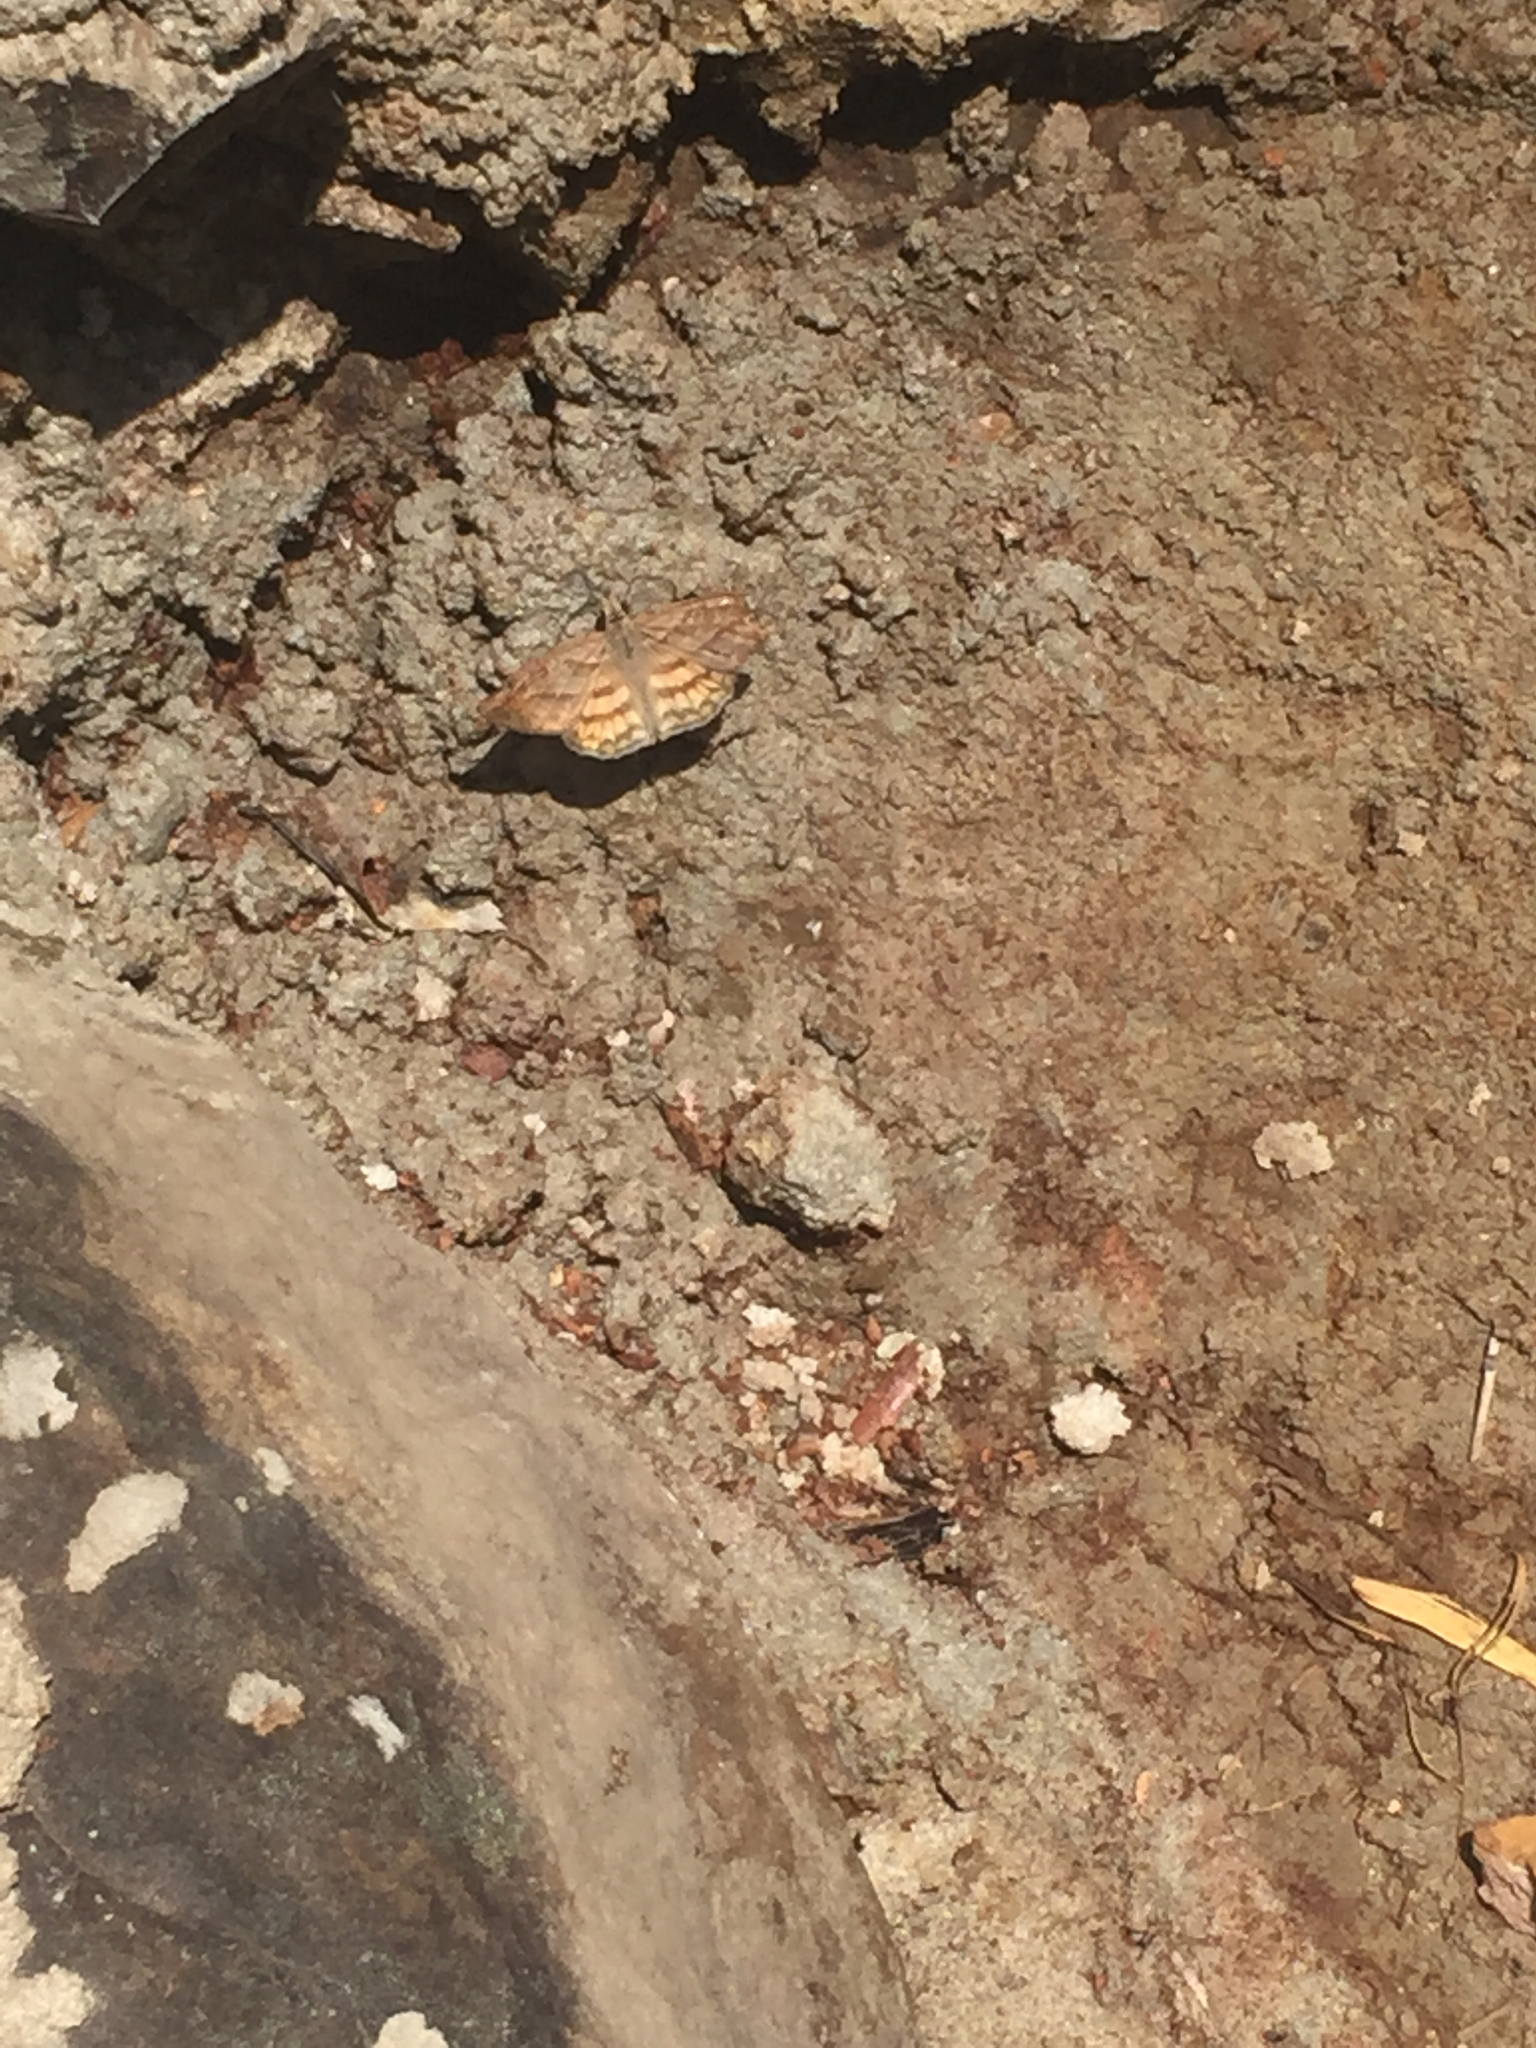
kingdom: Animalia
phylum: Arthropoda
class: Insecta
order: Lepidoptera
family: Hesperiidae
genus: Timochares
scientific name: Timochares trifasciata
